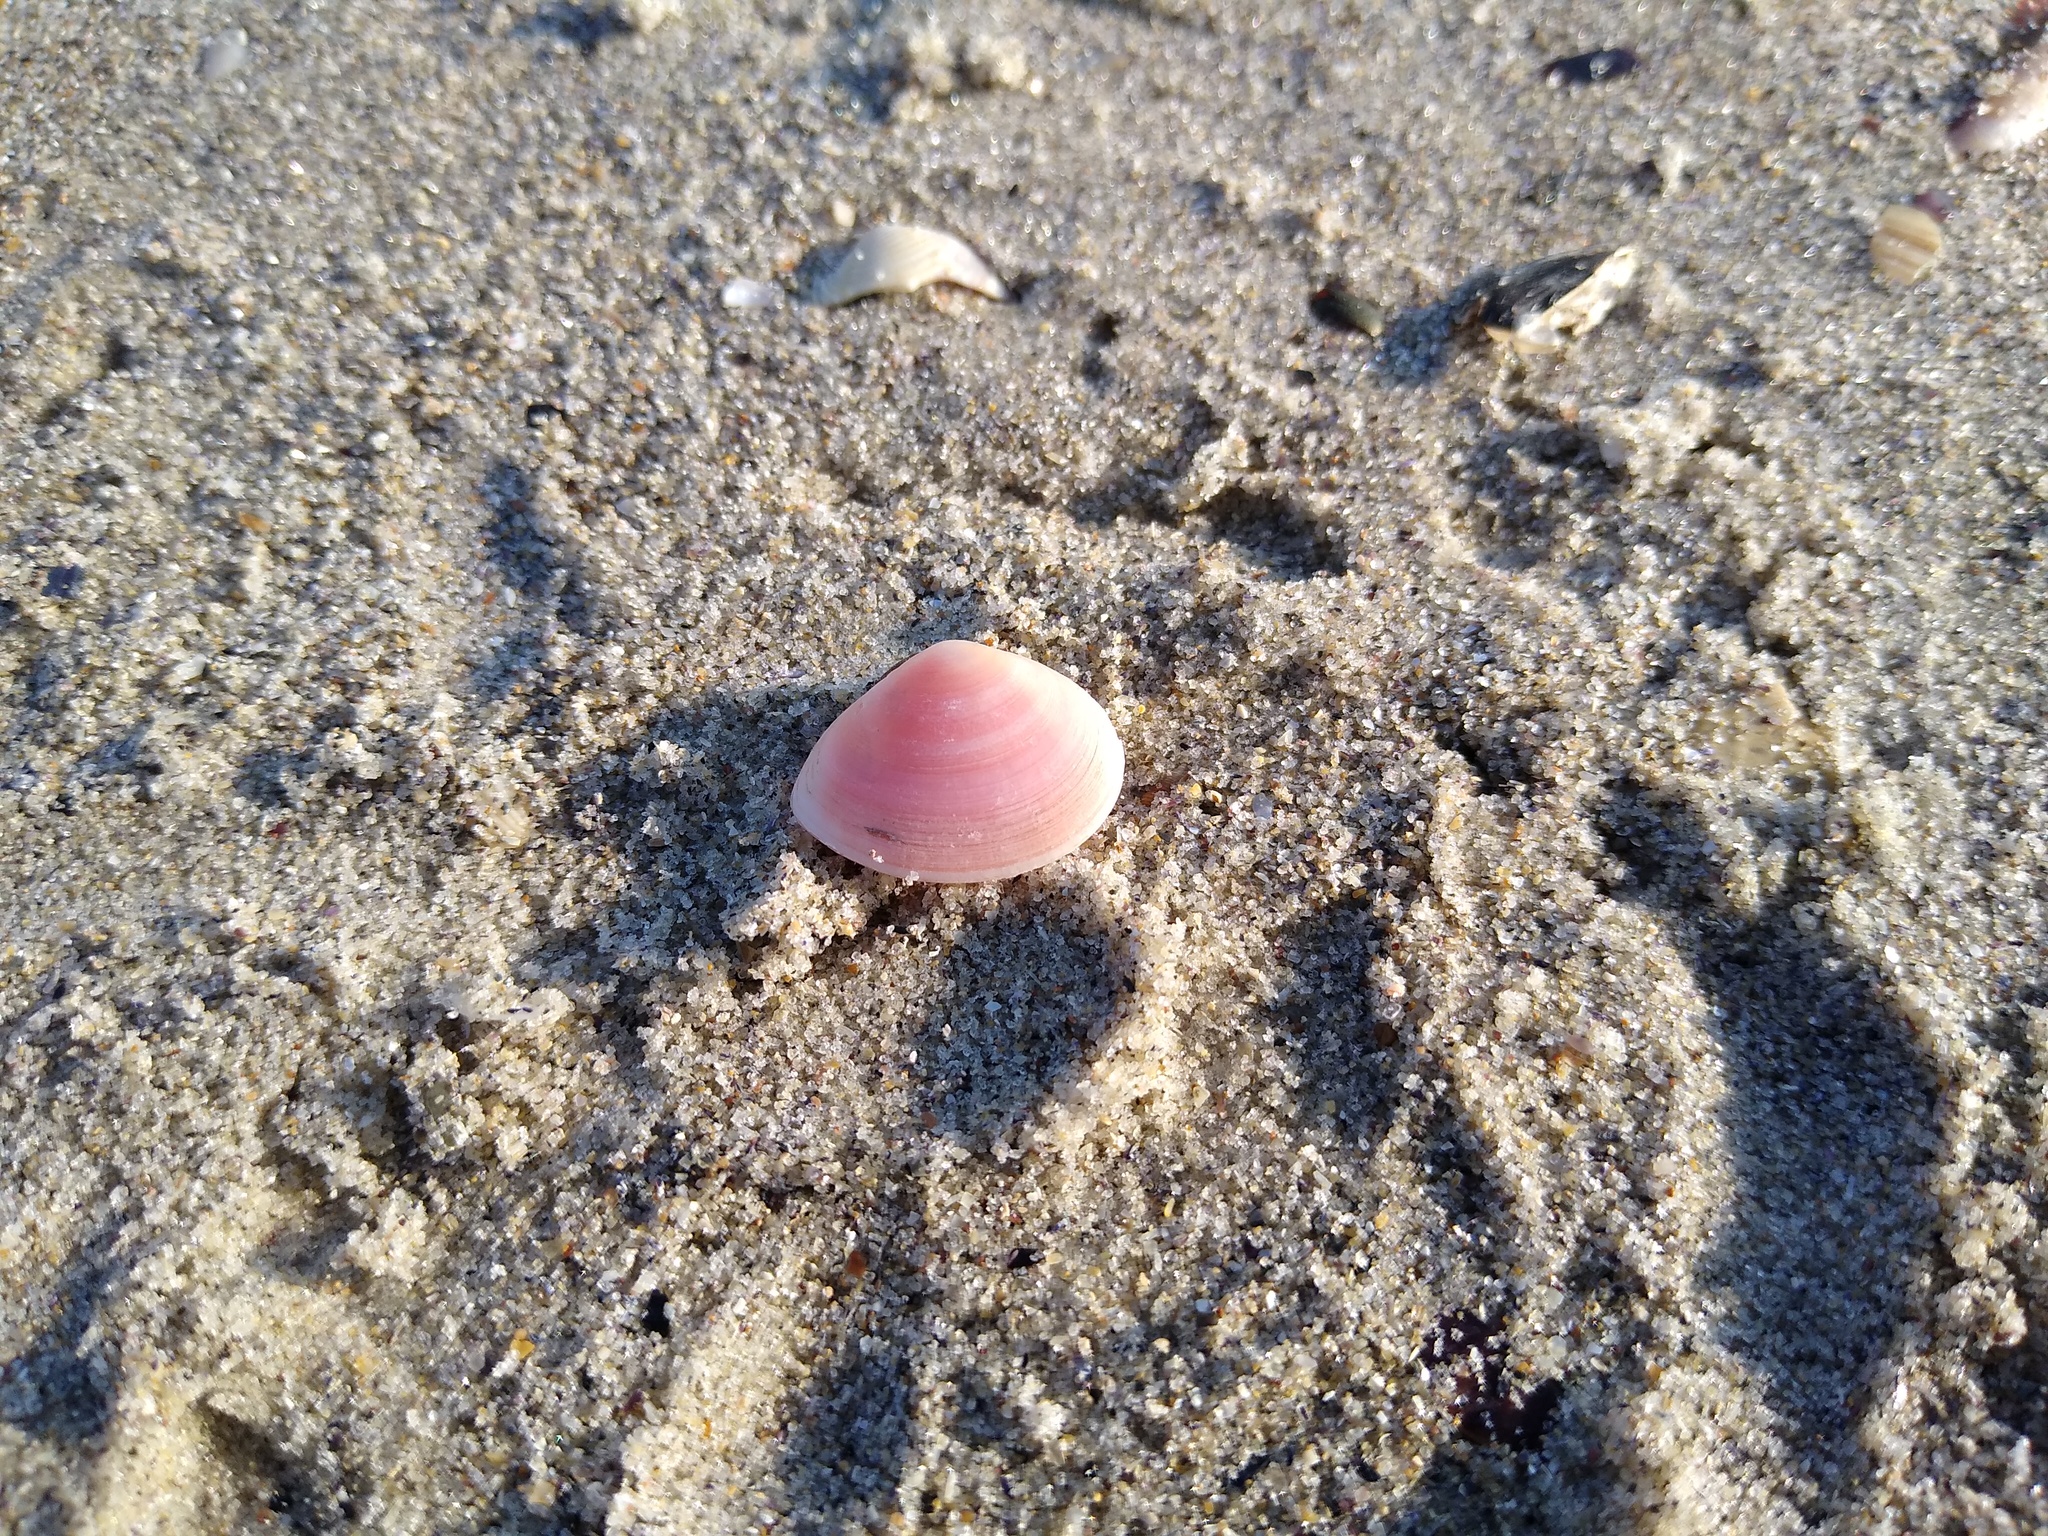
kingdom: Animalia
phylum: Mollusca
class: Bivalvia
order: Cardiida
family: Tellinidae
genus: Macomangulus
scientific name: Macomangulus tenuis
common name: Thin tellin
